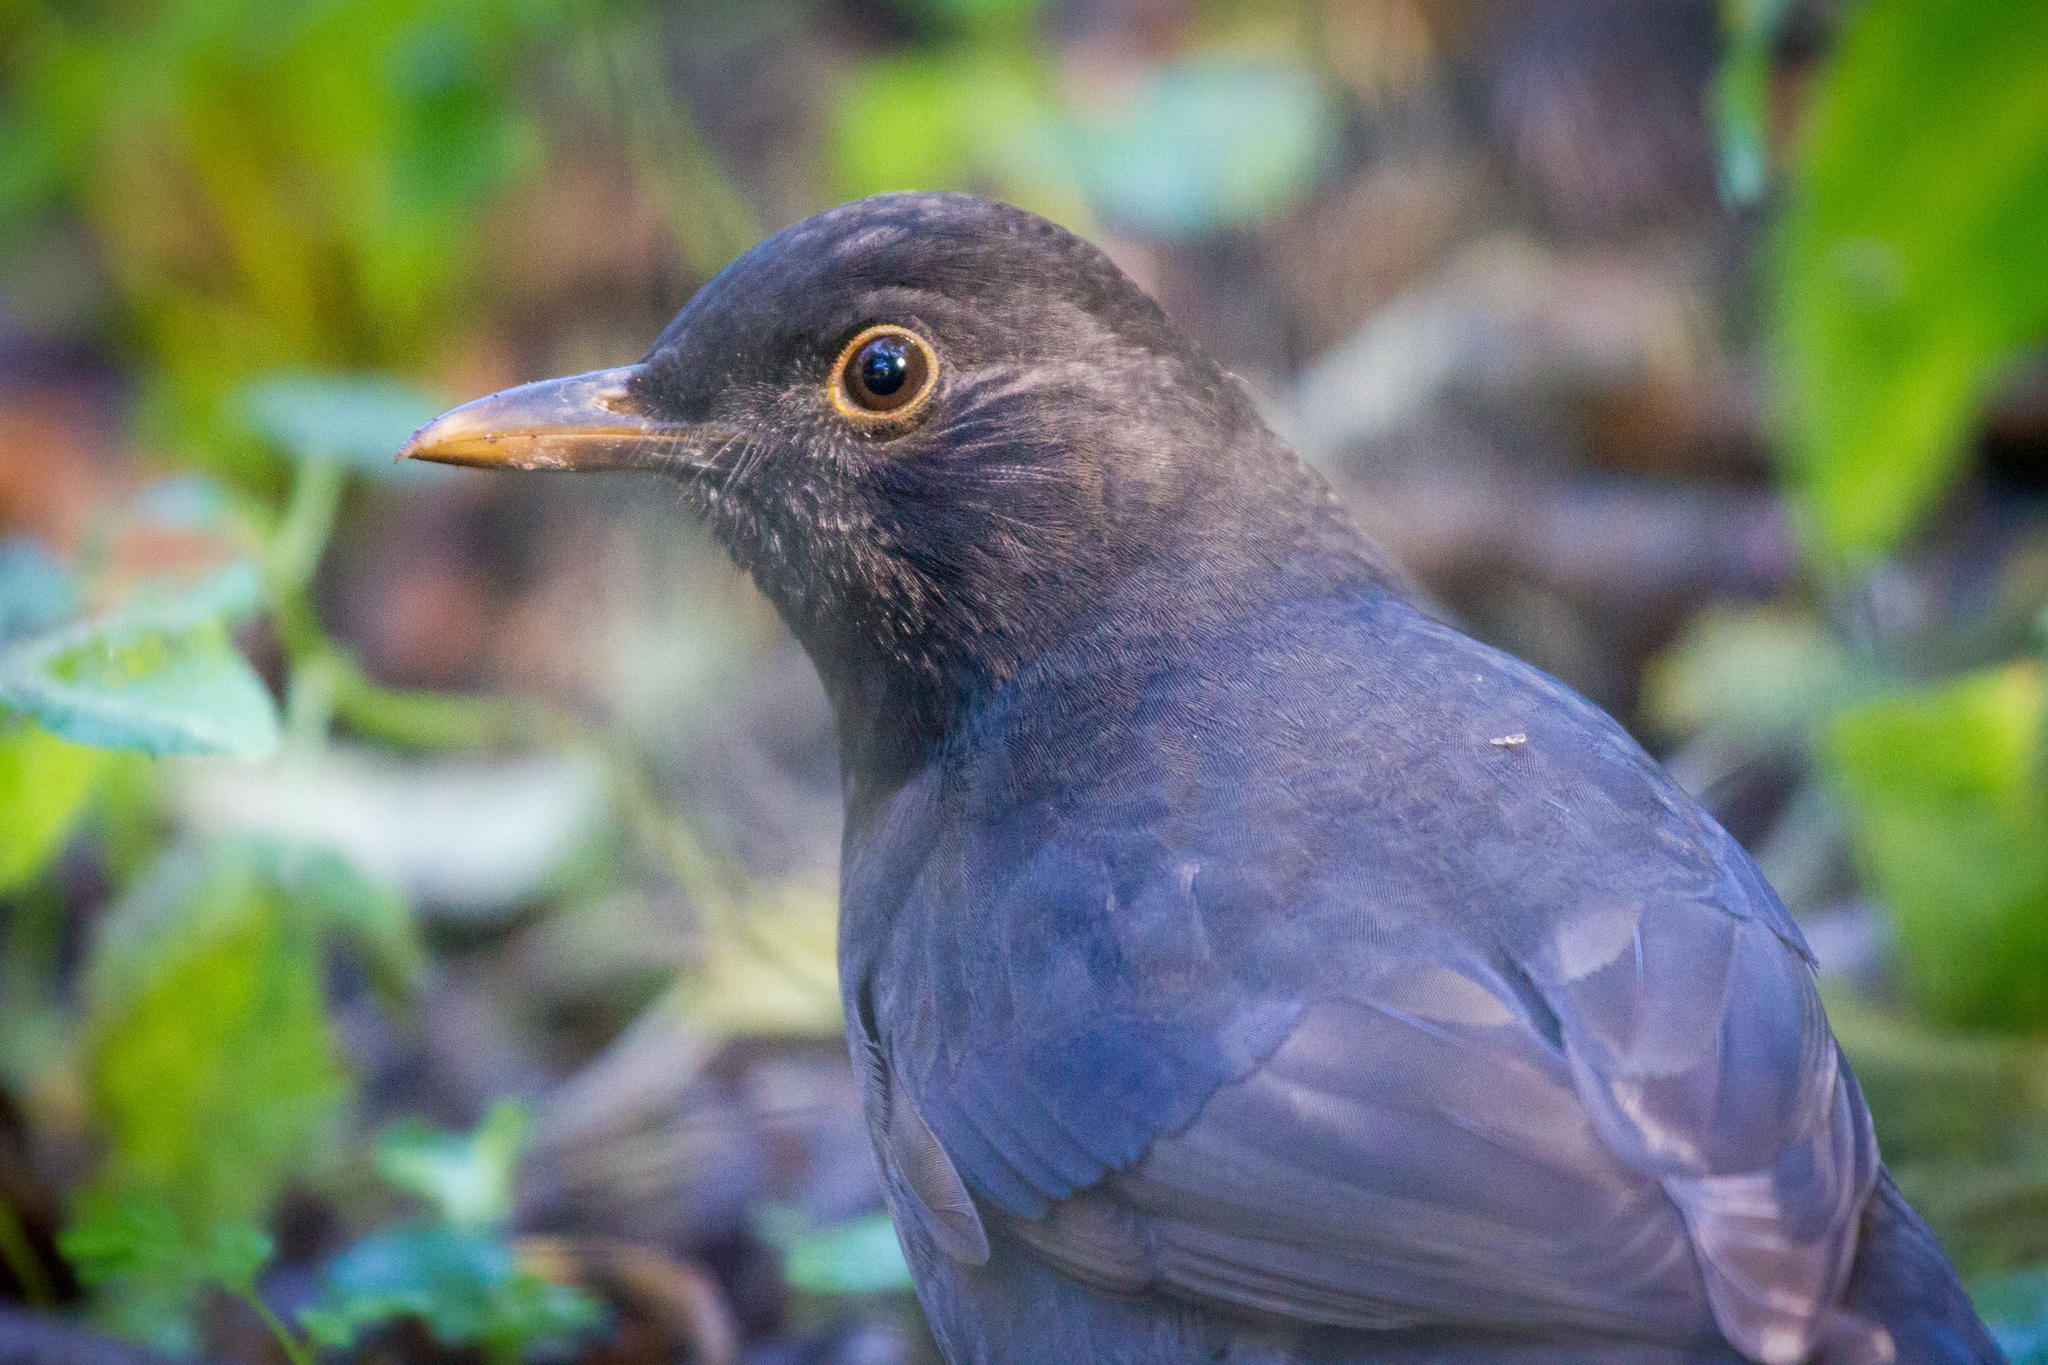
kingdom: Animalia
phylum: Chordata
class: Aves
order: Passeriformes
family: Turdidae
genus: Turdus
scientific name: Turdus merula
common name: Common blackbird
